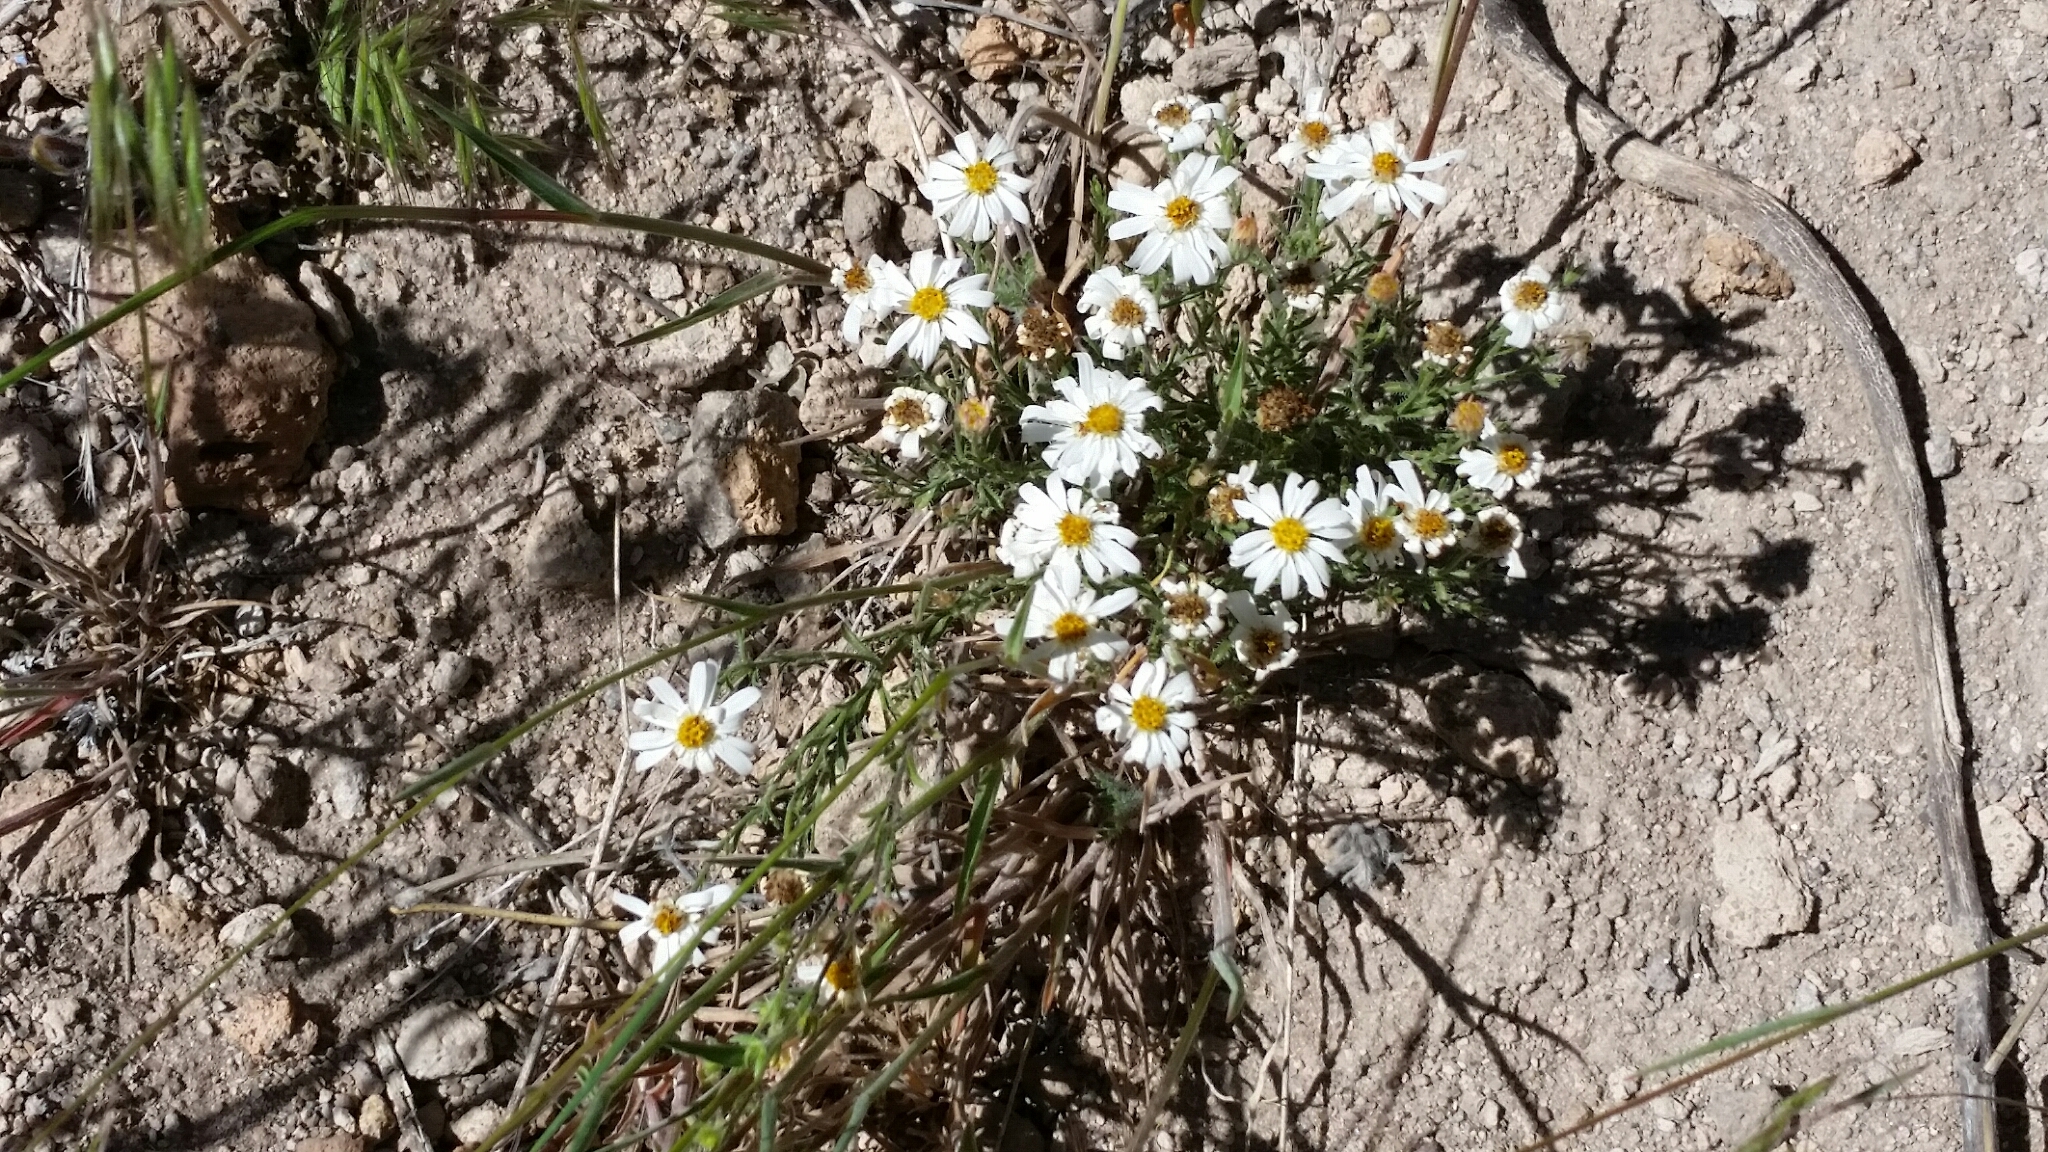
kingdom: Plantae
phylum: Tracheophyta
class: Magnoliopsida
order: Asterales
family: Asteraceae
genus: Chaetopappa
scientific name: Chaetopappa ericoides
